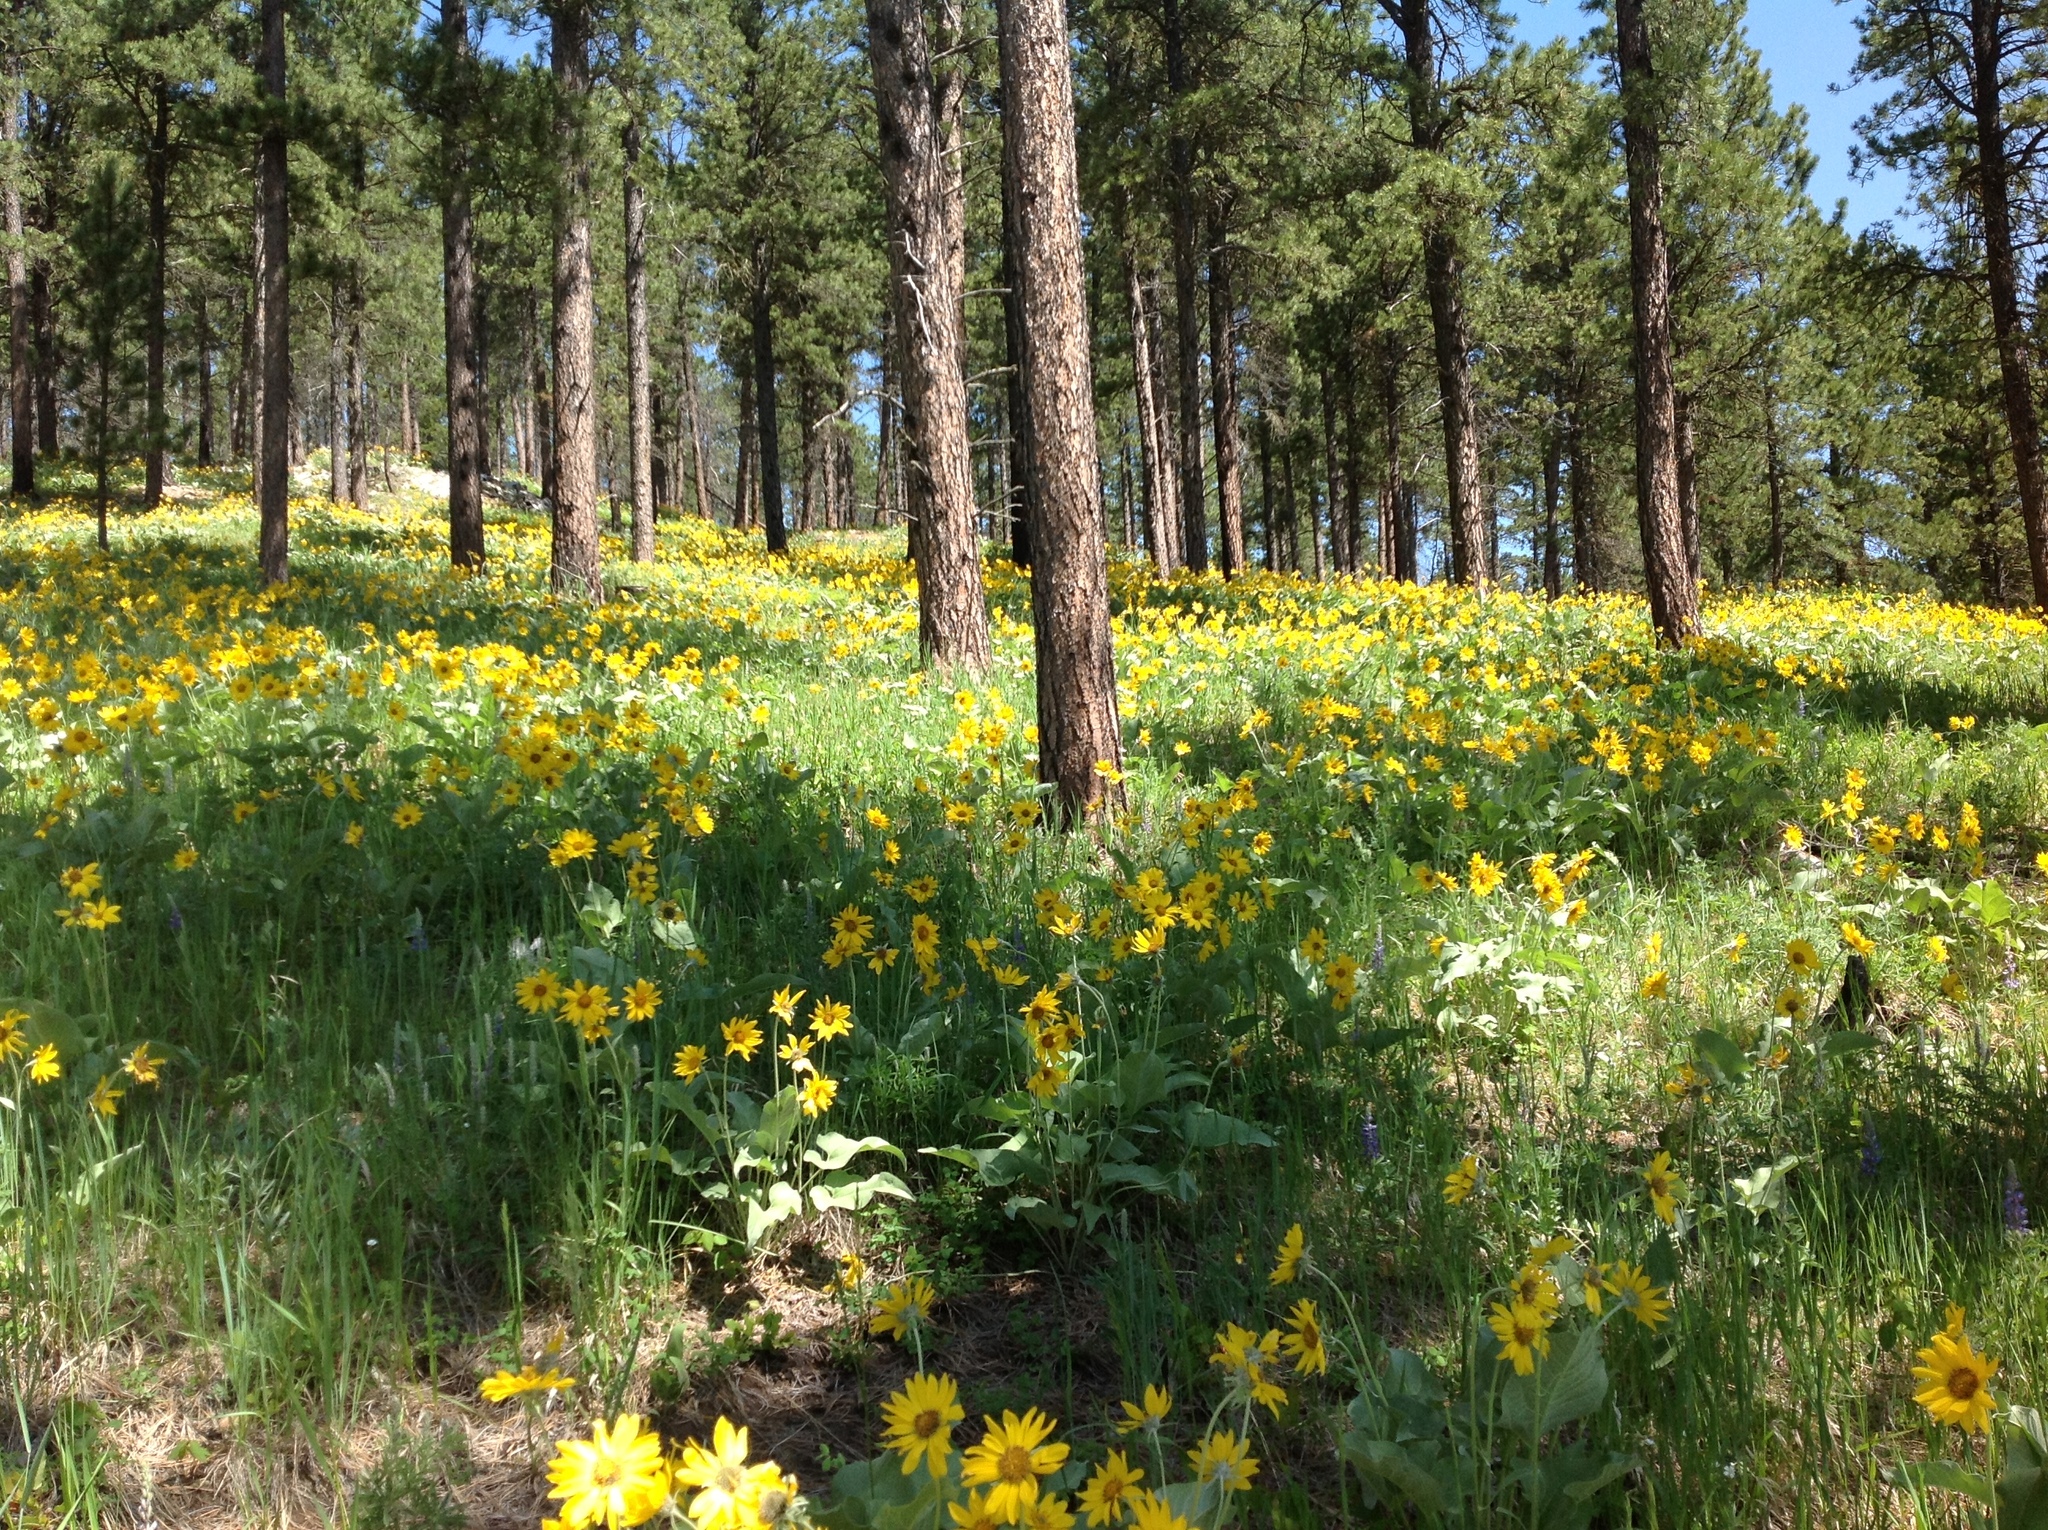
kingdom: Plantae
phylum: Tracheophyta
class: Magnoliopsida
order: Asterales
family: Asteraceae
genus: Wyethia
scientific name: Wyethia sagittata
